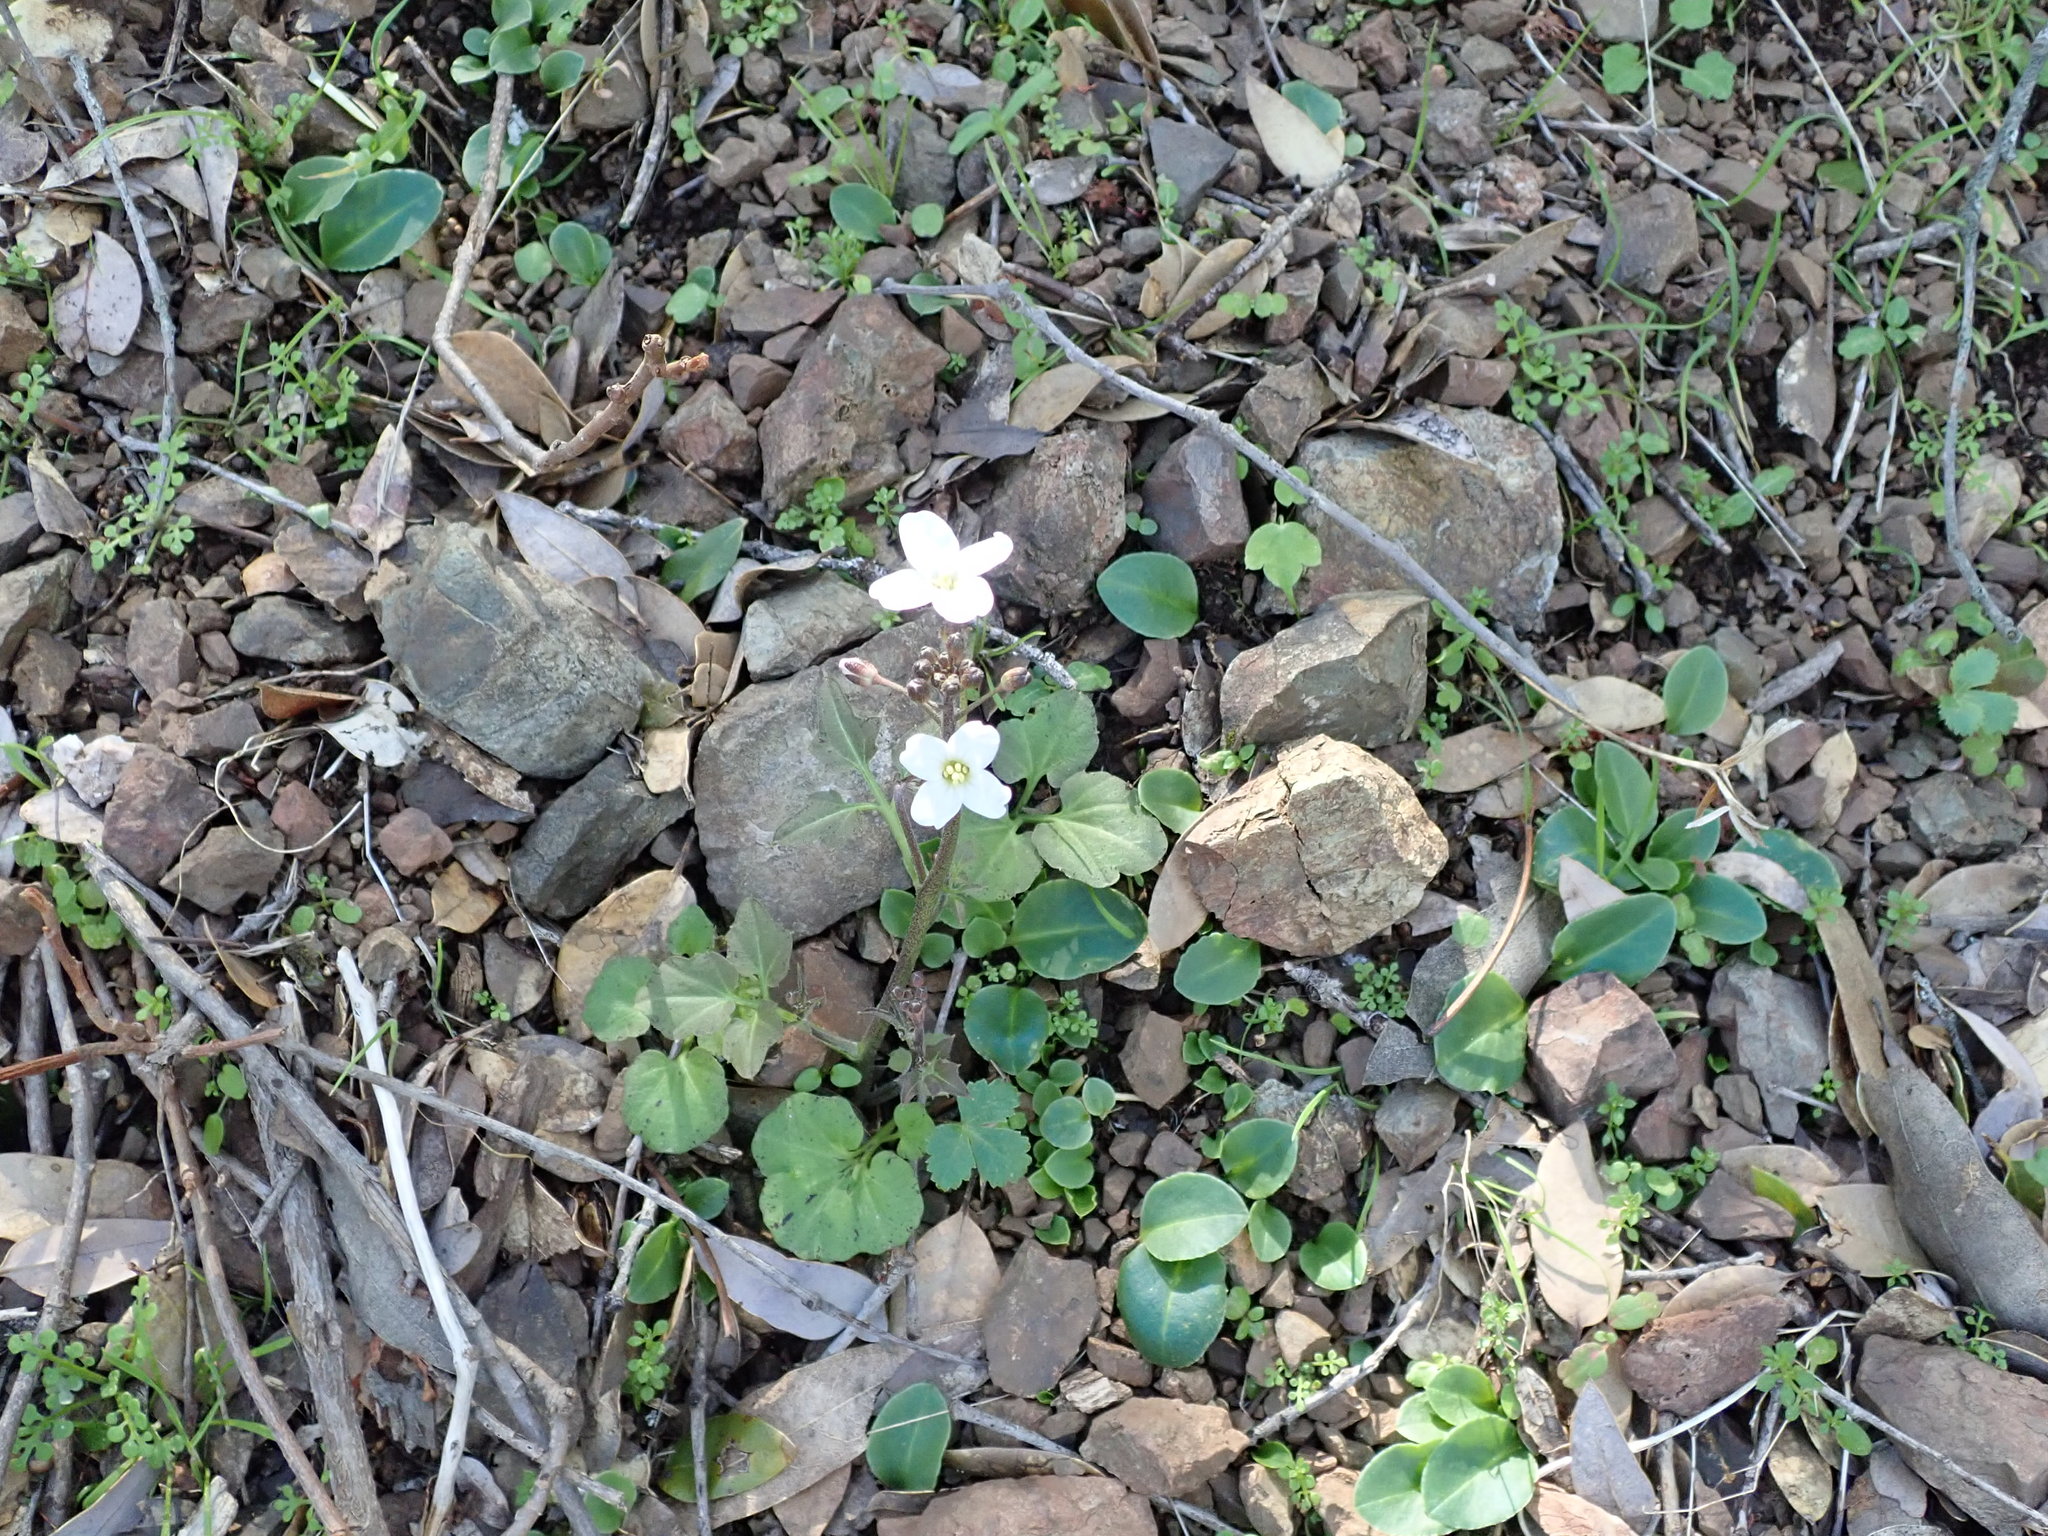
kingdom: Plantae
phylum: Tracheophyta
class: Magnoliopsida
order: Brassicales
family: Brassicaceae
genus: Cardamine
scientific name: Cardamine californica
